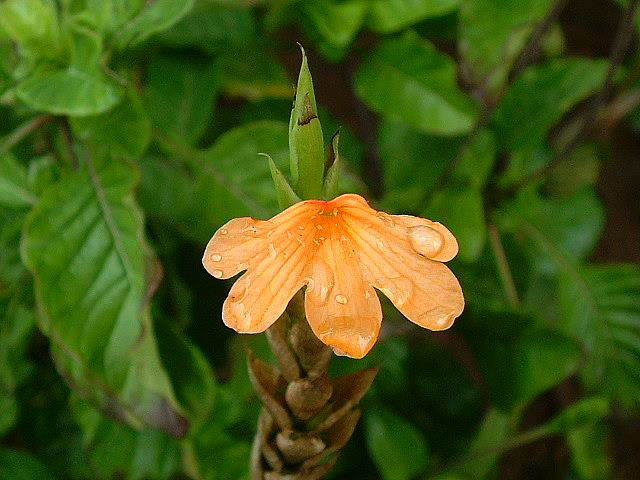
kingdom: Plantae
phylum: Tracheophyta
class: Magnoliopsida
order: Lamiales
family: Acanthaceae
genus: Crossandra
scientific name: Crossandra fruticulosa
